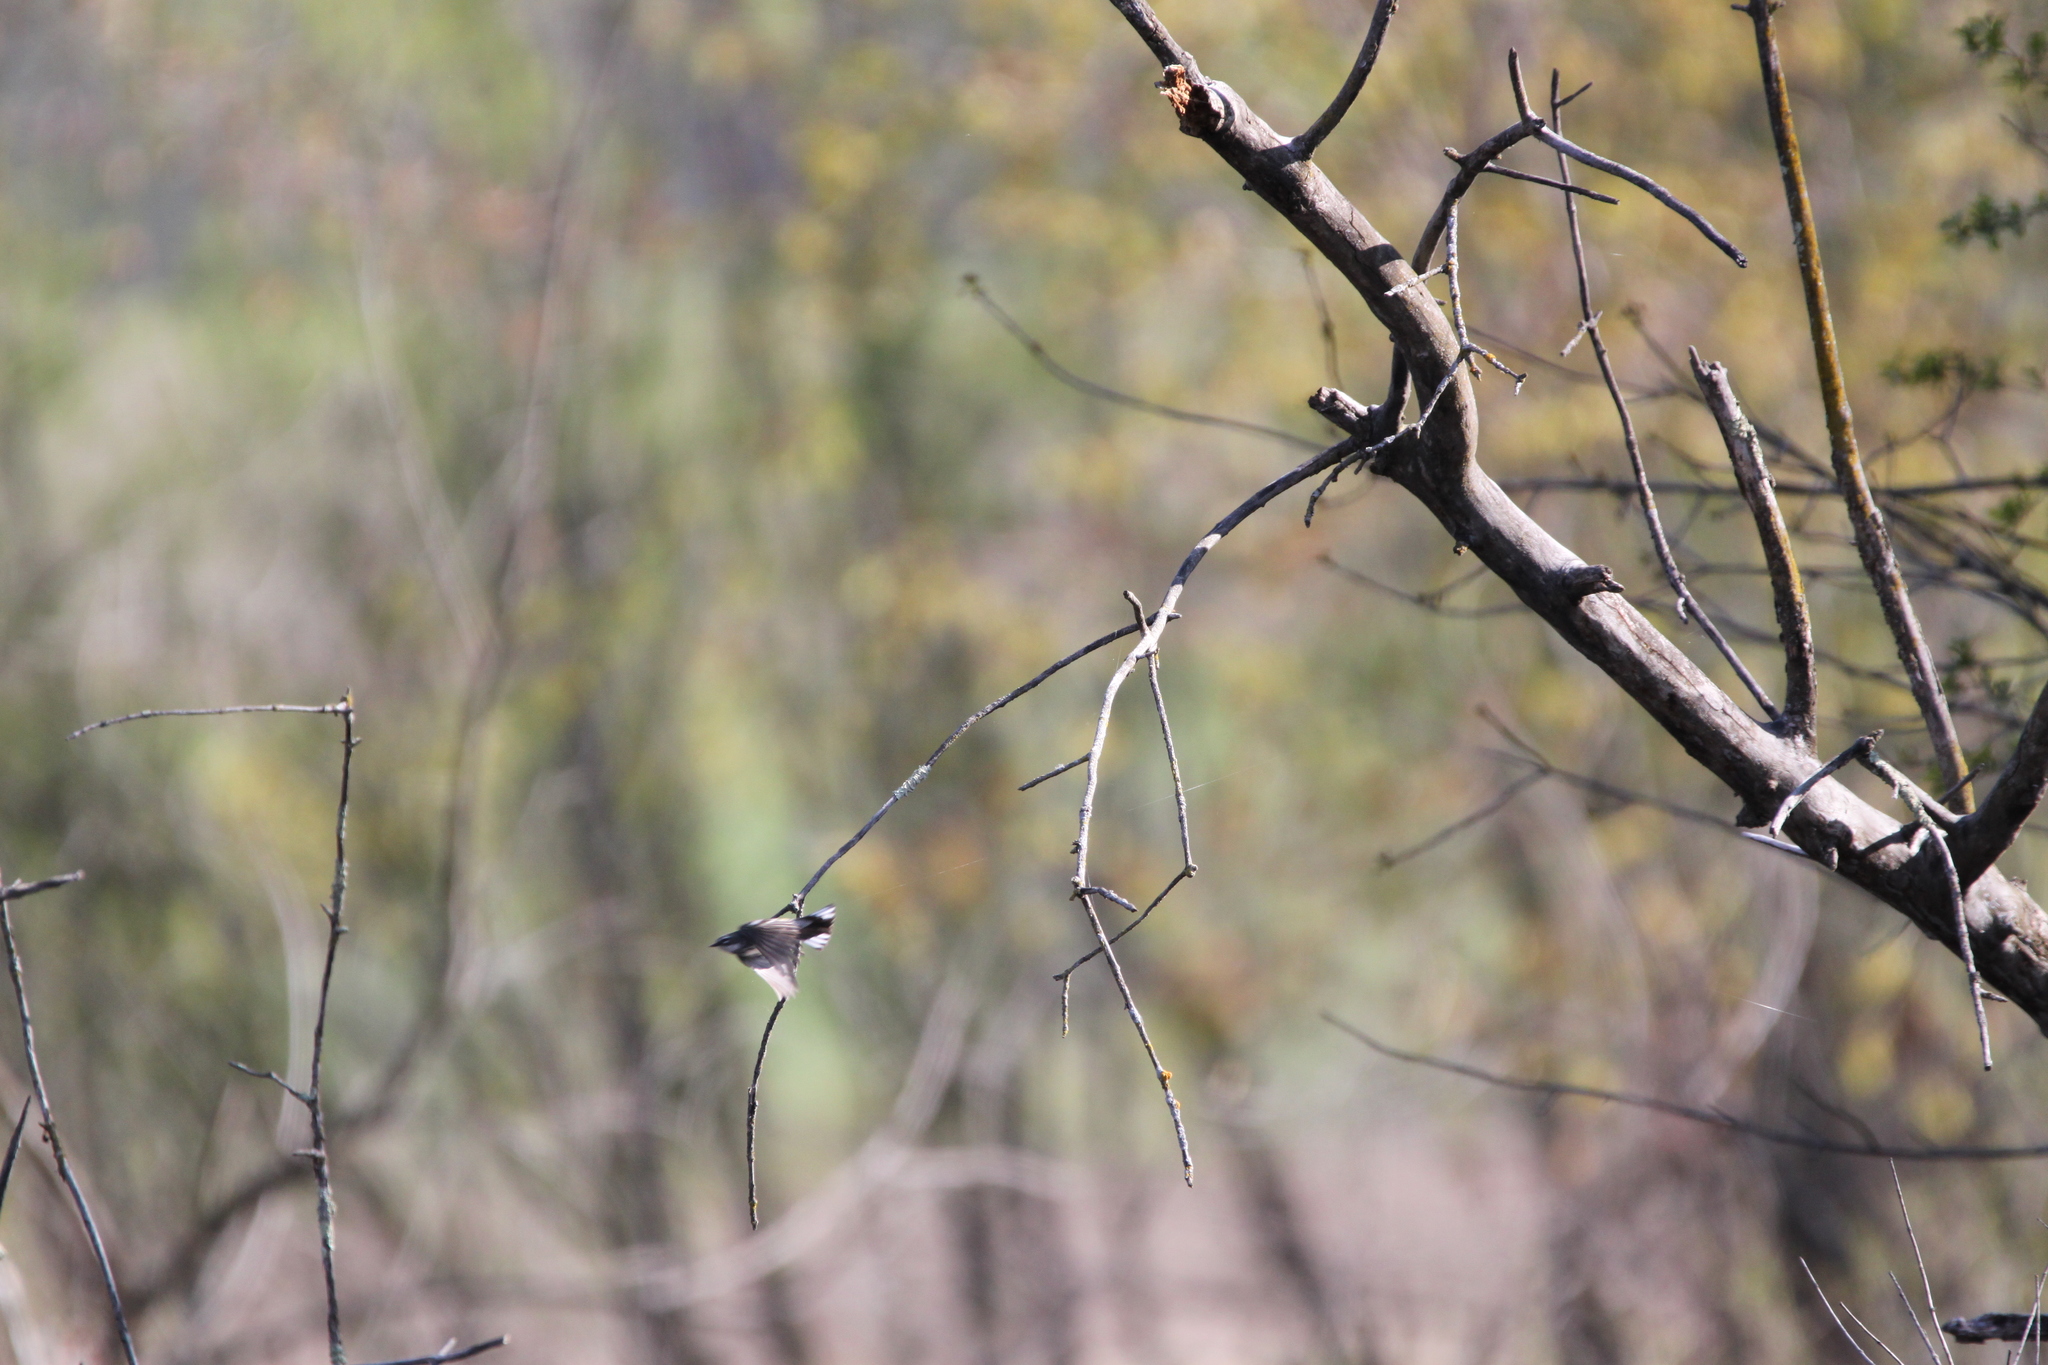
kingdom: Animalia
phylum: Chordata
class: Aves
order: Passeriformes
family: Parulidae
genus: Setophaga
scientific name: Setophaga coronata
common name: Myrtle warbler
